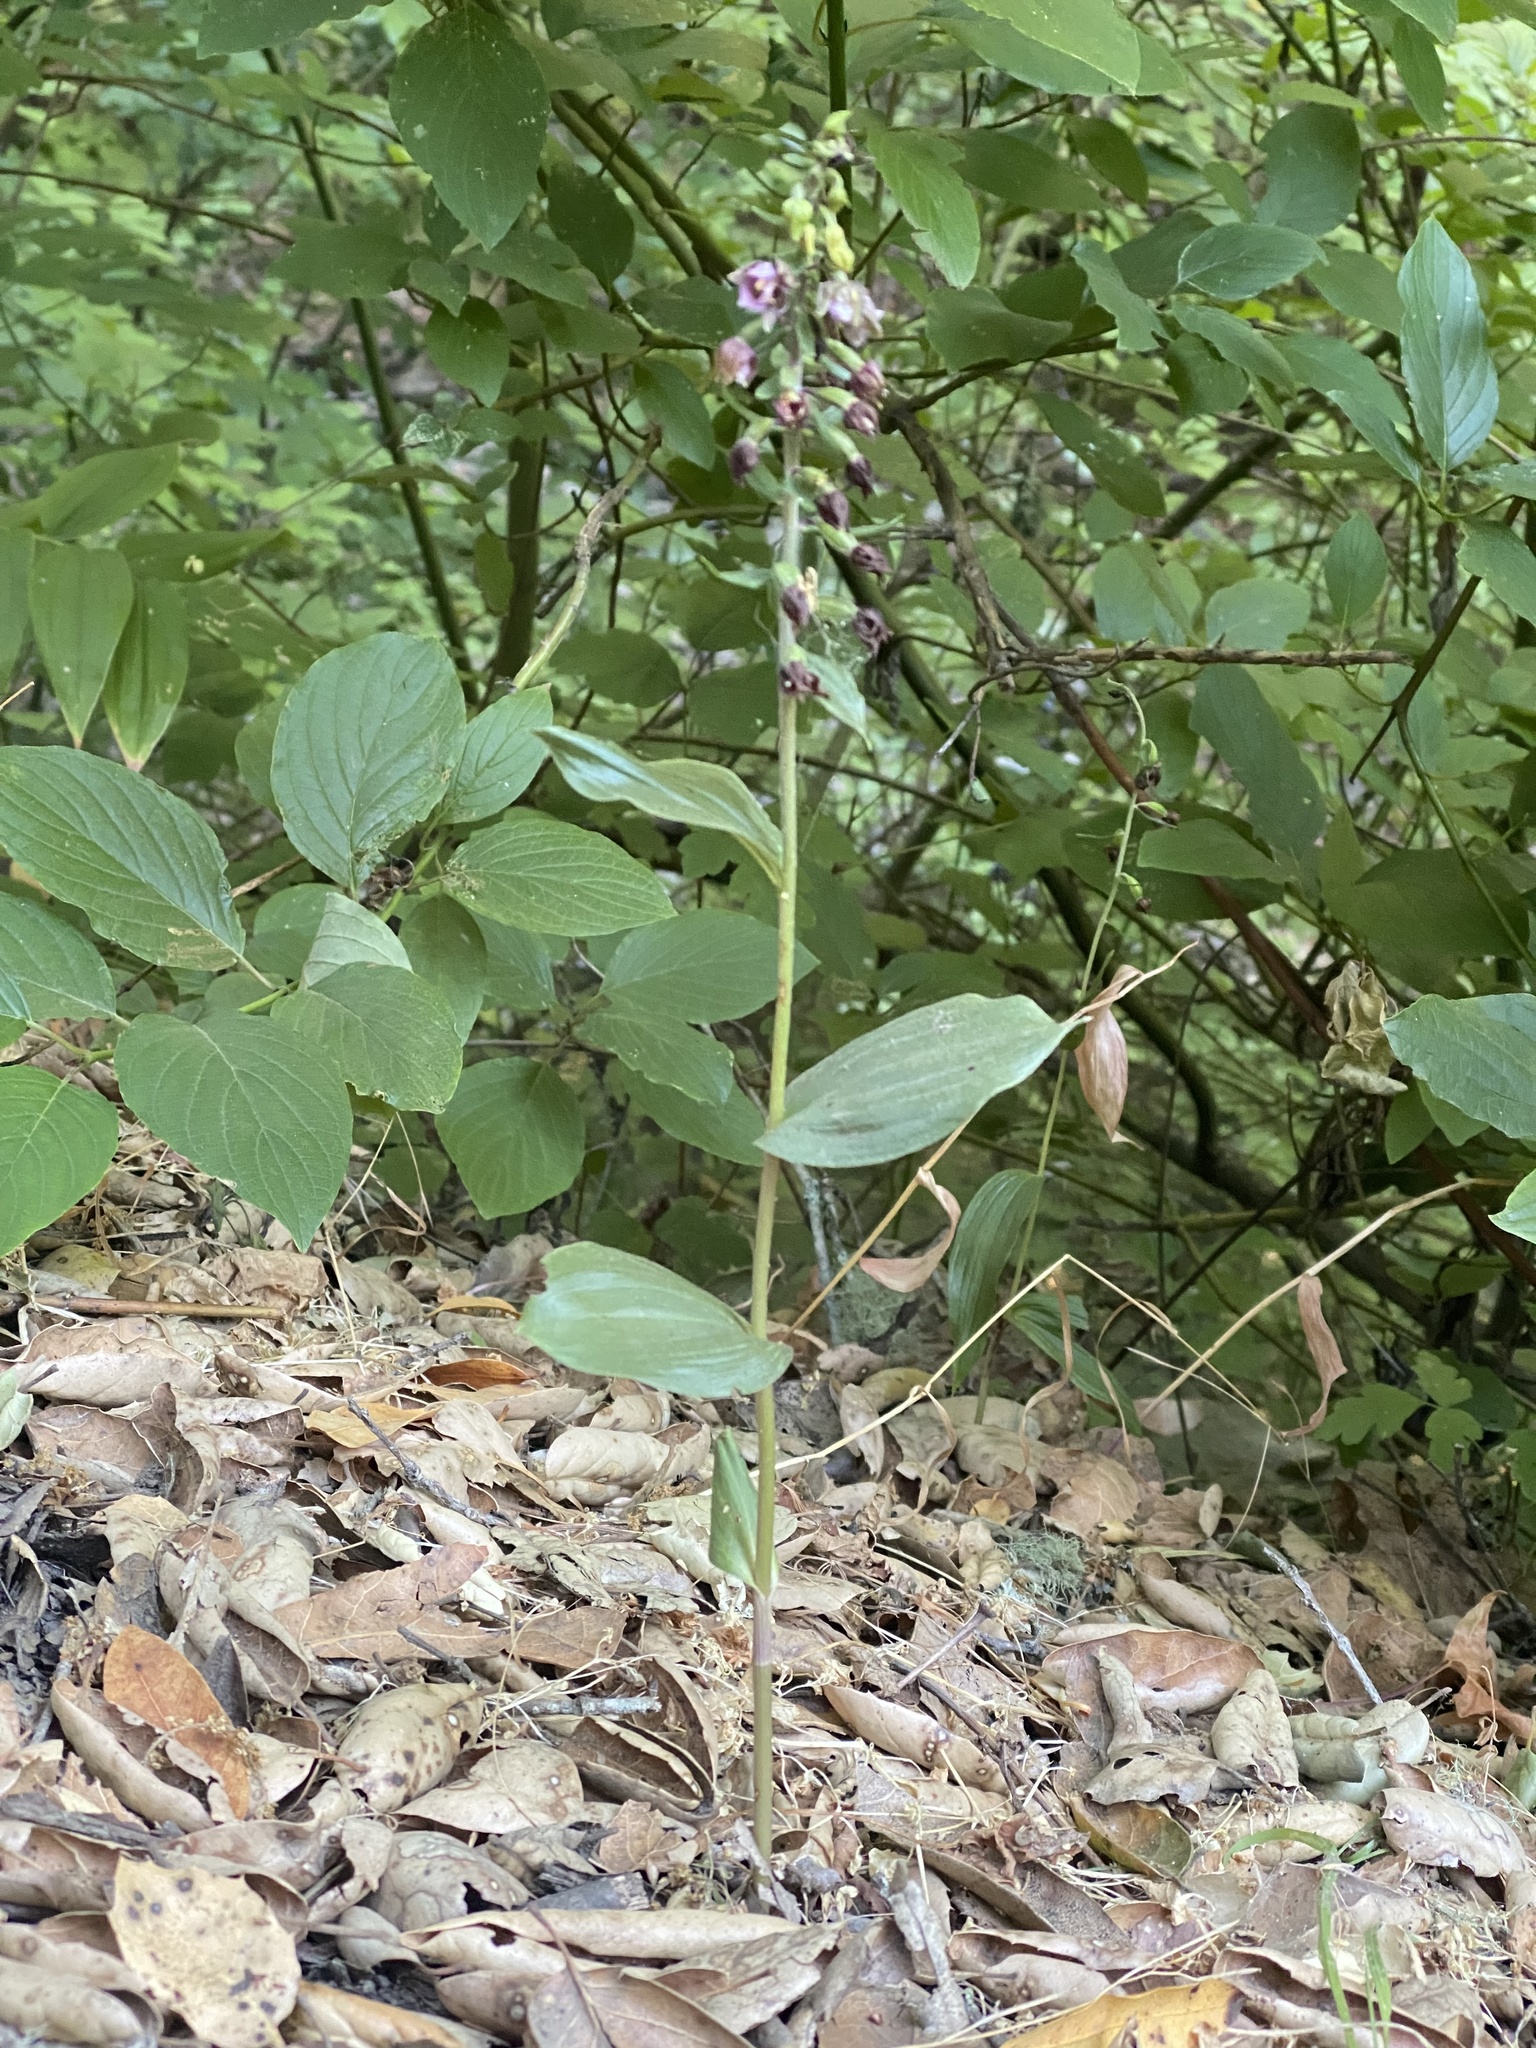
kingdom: Plantae
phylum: Tracheophyta
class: Liliopsida
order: Asparagales
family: Orchidaceae
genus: Epipactis
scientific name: Epipactis helleborine
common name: Broad-leaved helleborine
